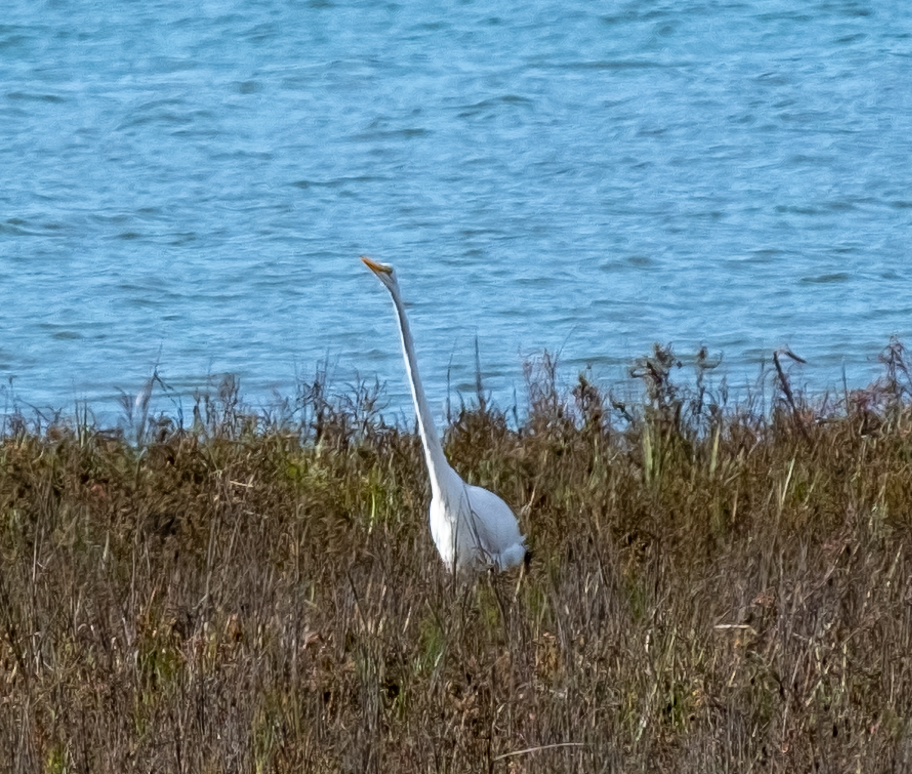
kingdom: Animalia
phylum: Chordata
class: Aves
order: Pelecaniformes
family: Ardeidae
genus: Ardea
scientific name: Ardea alba
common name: Great egret
